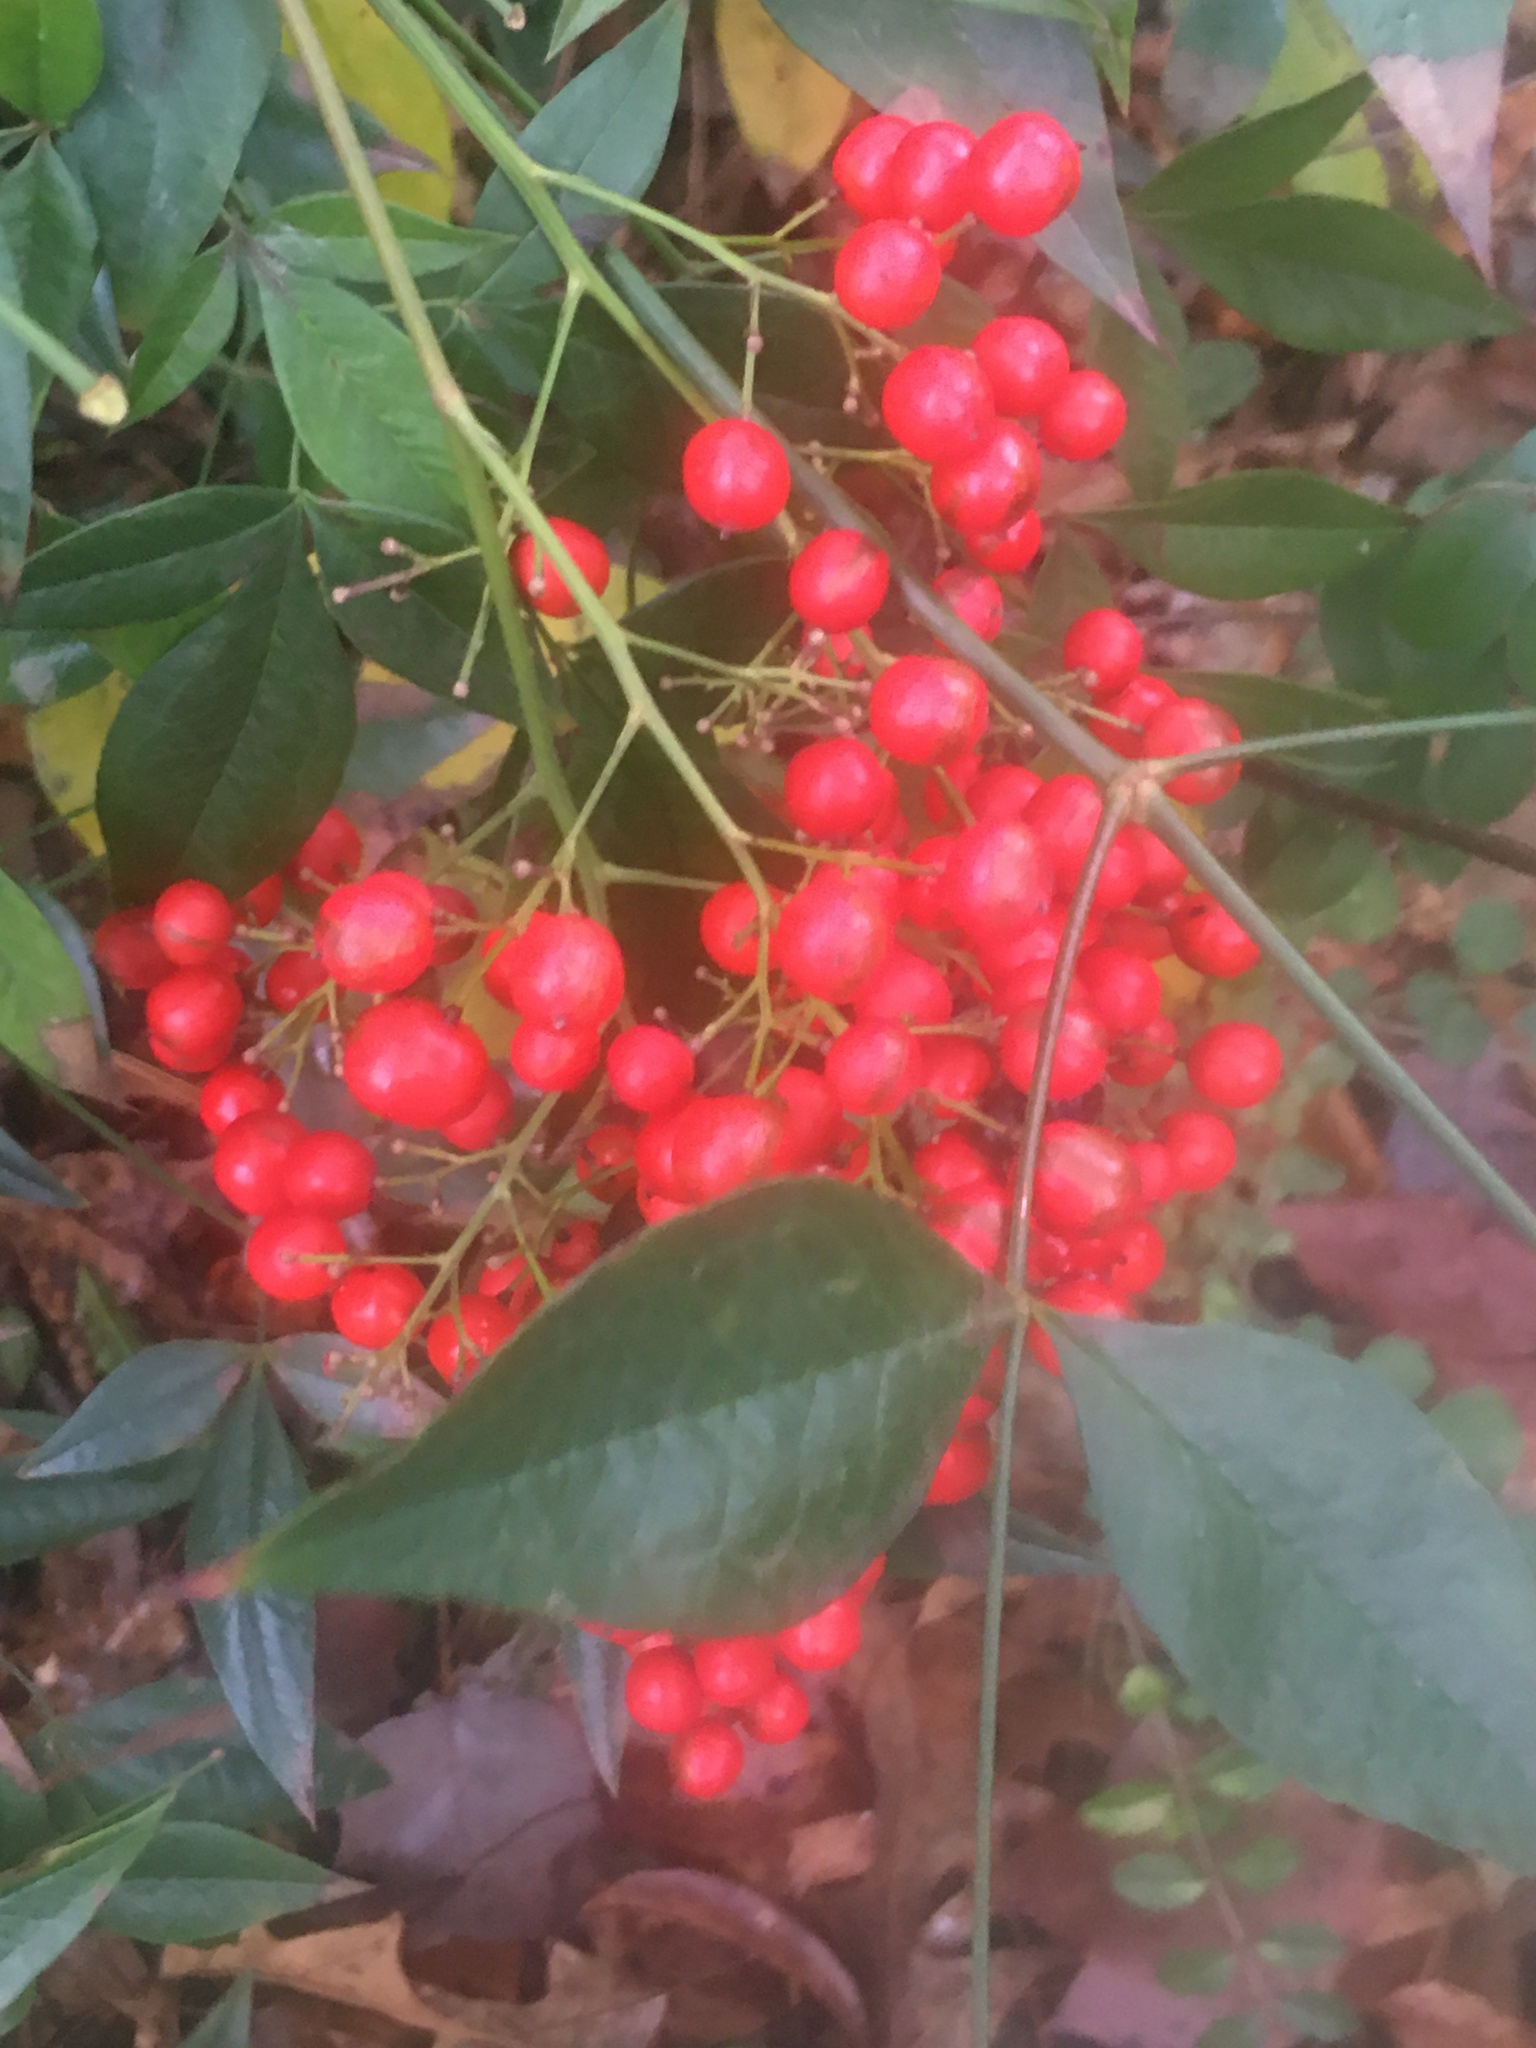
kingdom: Plantae
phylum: Tracheophyta
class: Magnoliopsida
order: Ranunculales
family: Berberidaceae
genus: Nandina
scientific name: Nandina domestica
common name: Sacred bamboo
